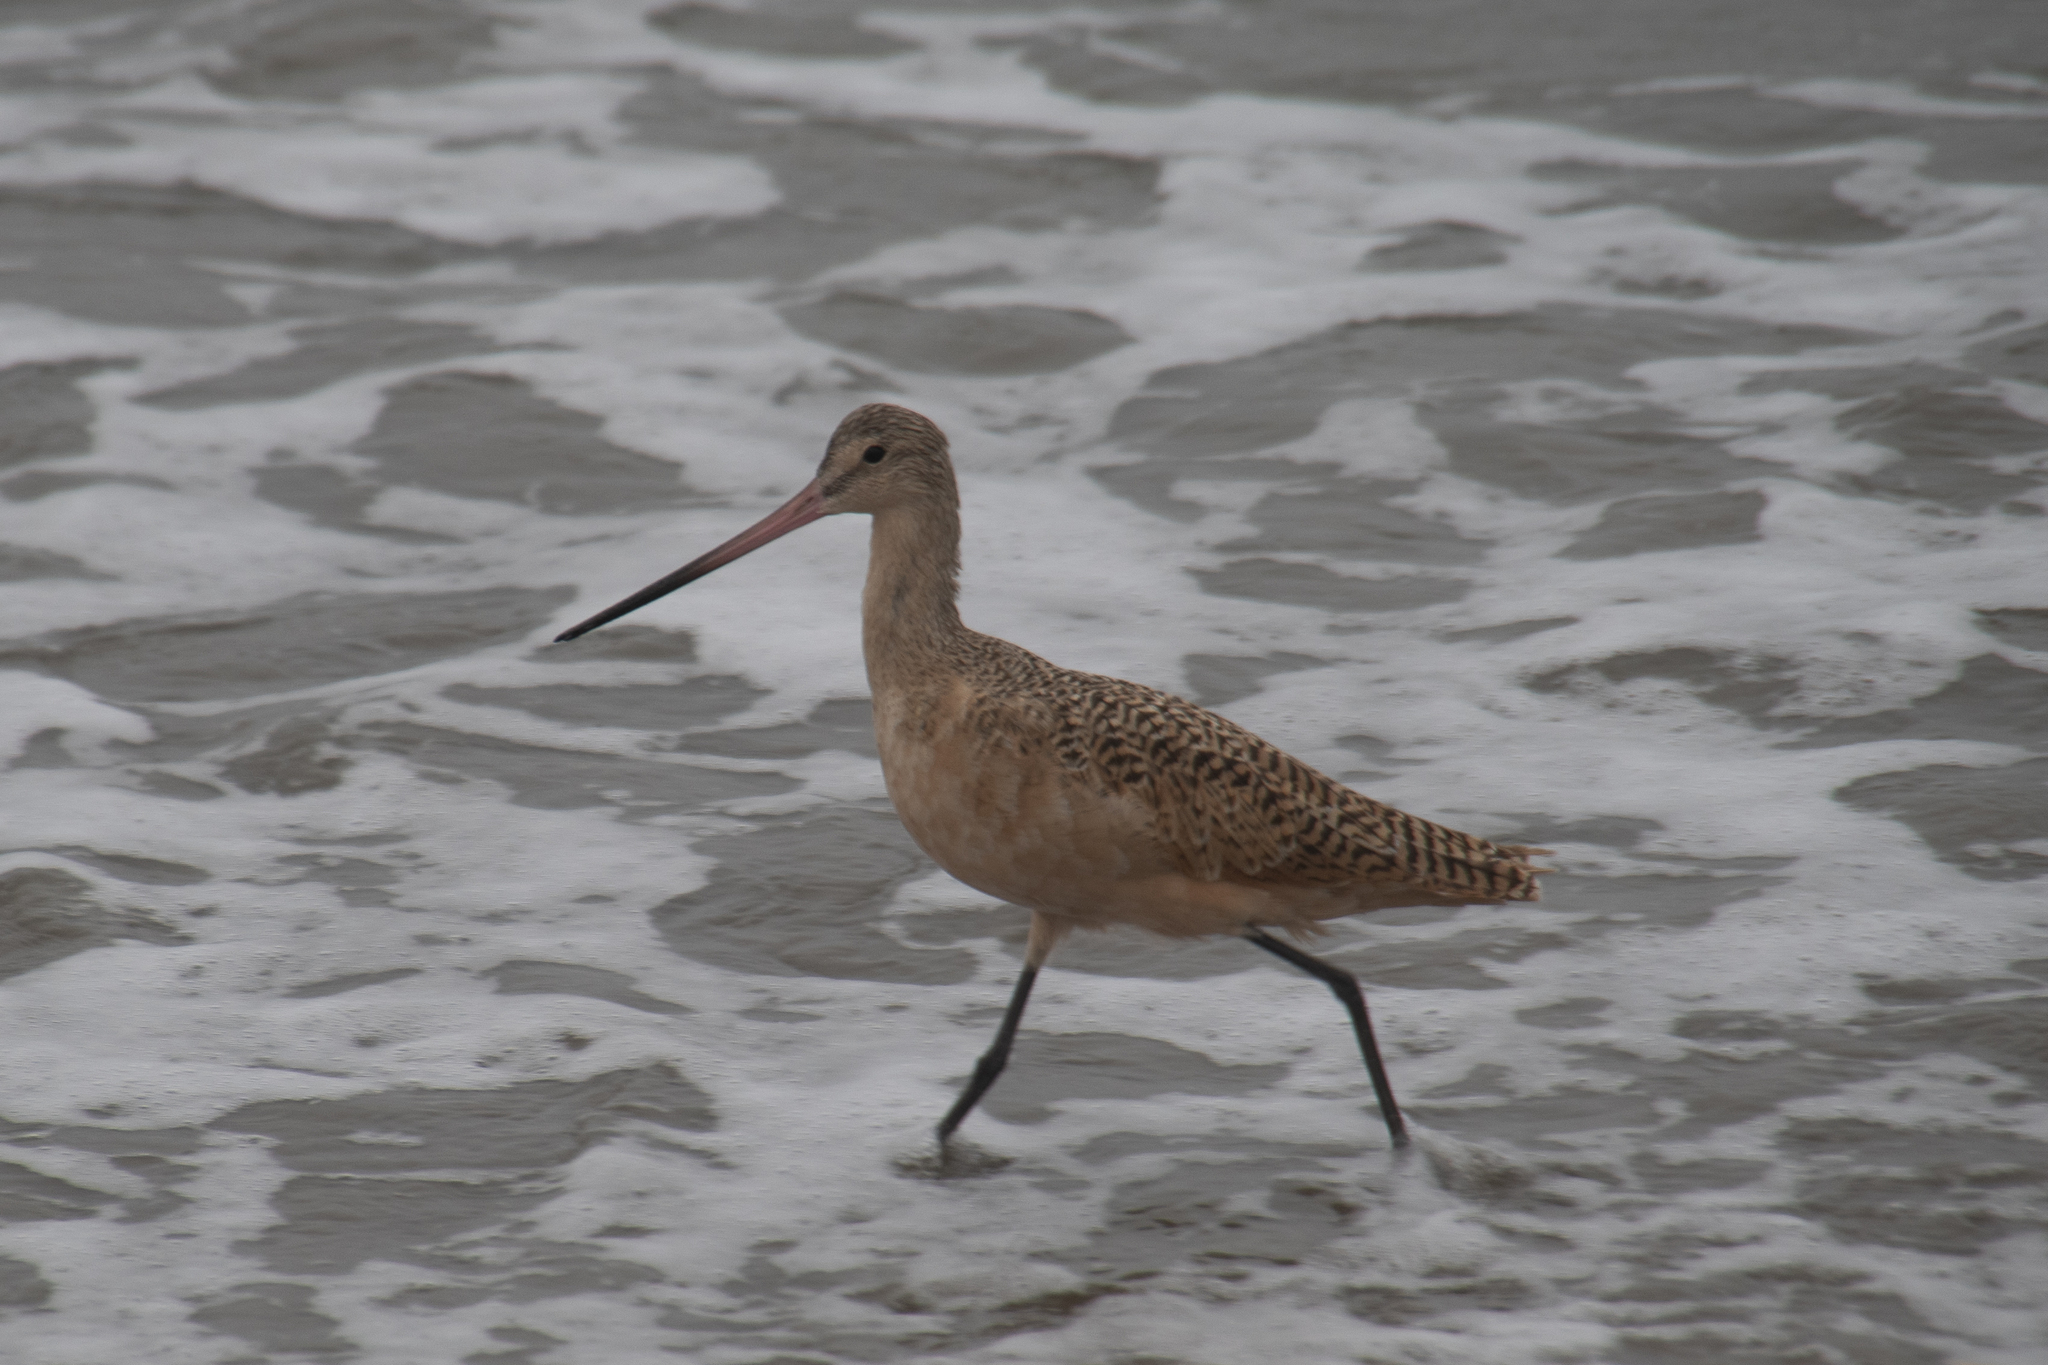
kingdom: Animalia
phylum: Chordata
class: Aves
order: Charadriiformes
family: Scolopacidae
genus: Limosa
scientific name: Limosa fedoa
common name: Marbled godwit
